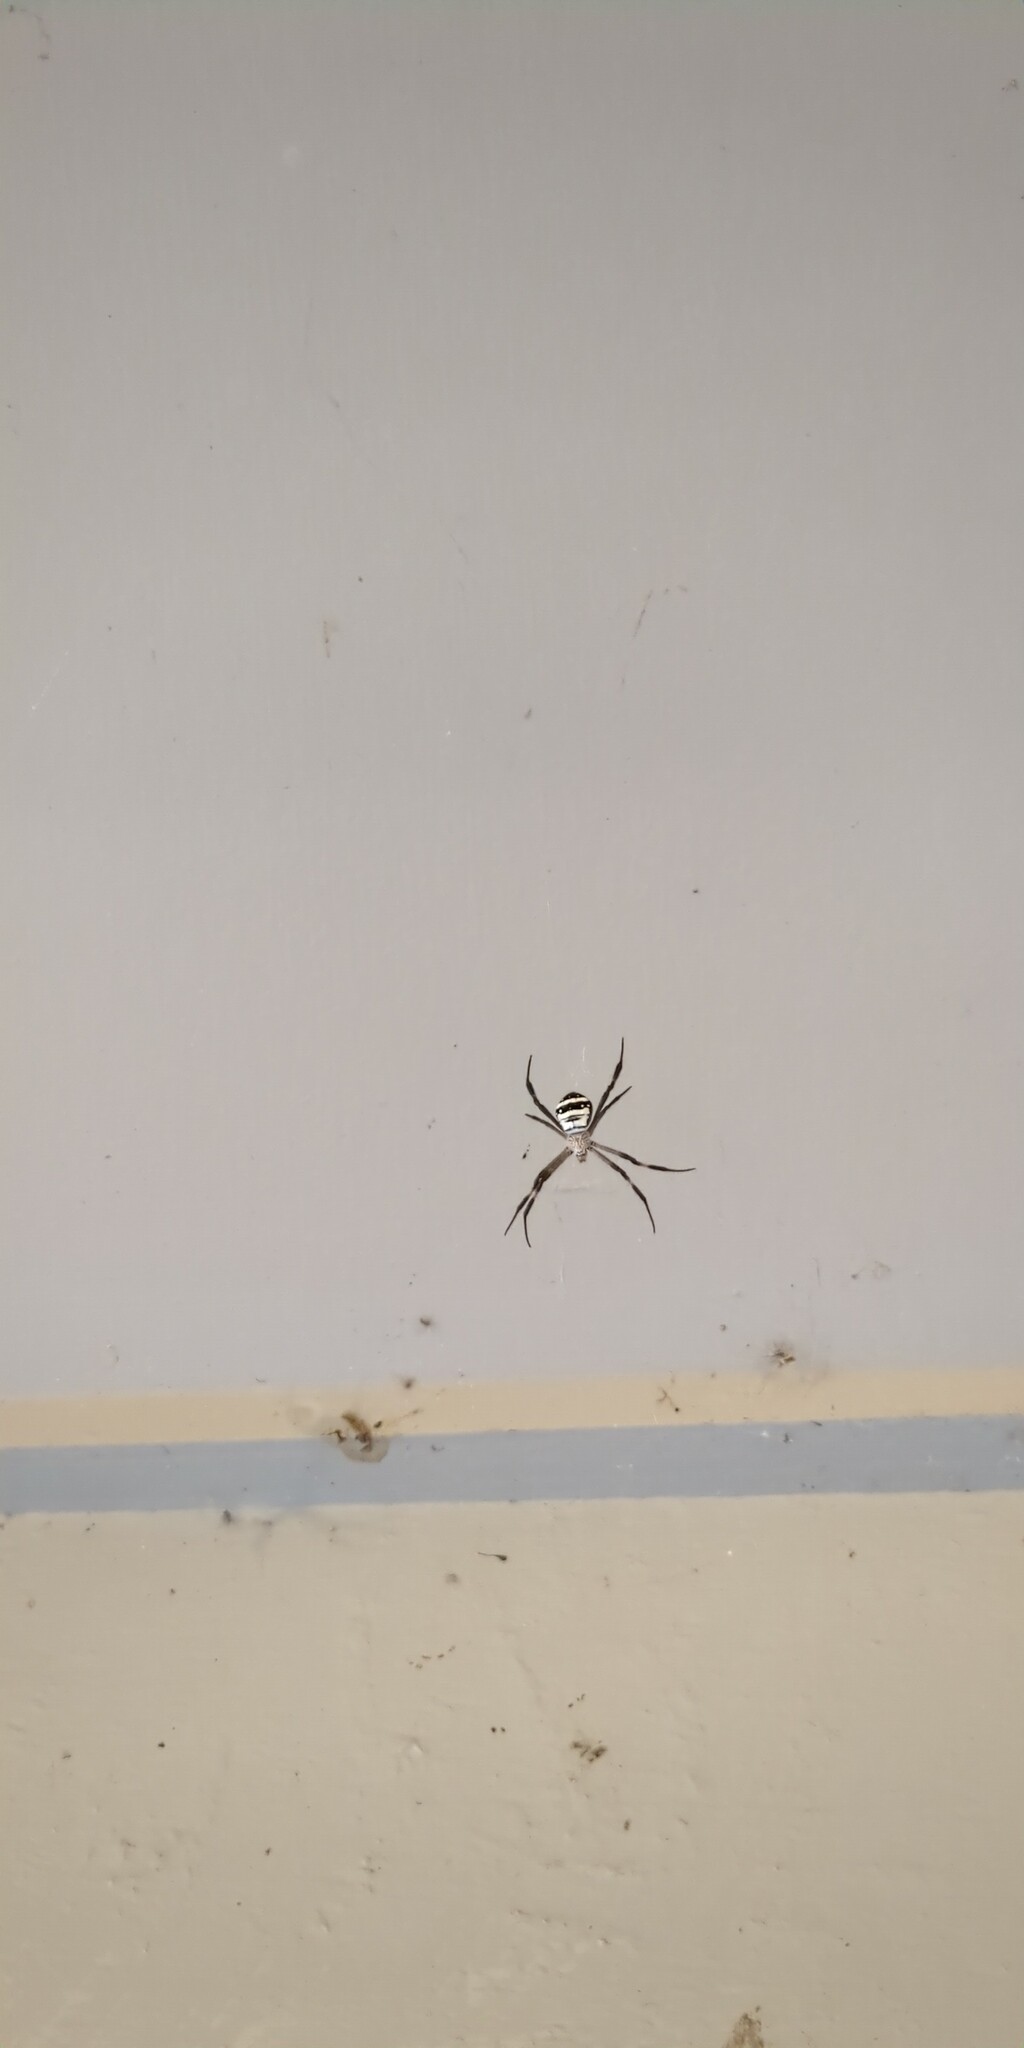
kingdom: Animalia
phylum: Arthropoda
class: Arachnida
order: Araneae
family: Araneidae
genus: Argiope
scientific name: Argiope aetherea
